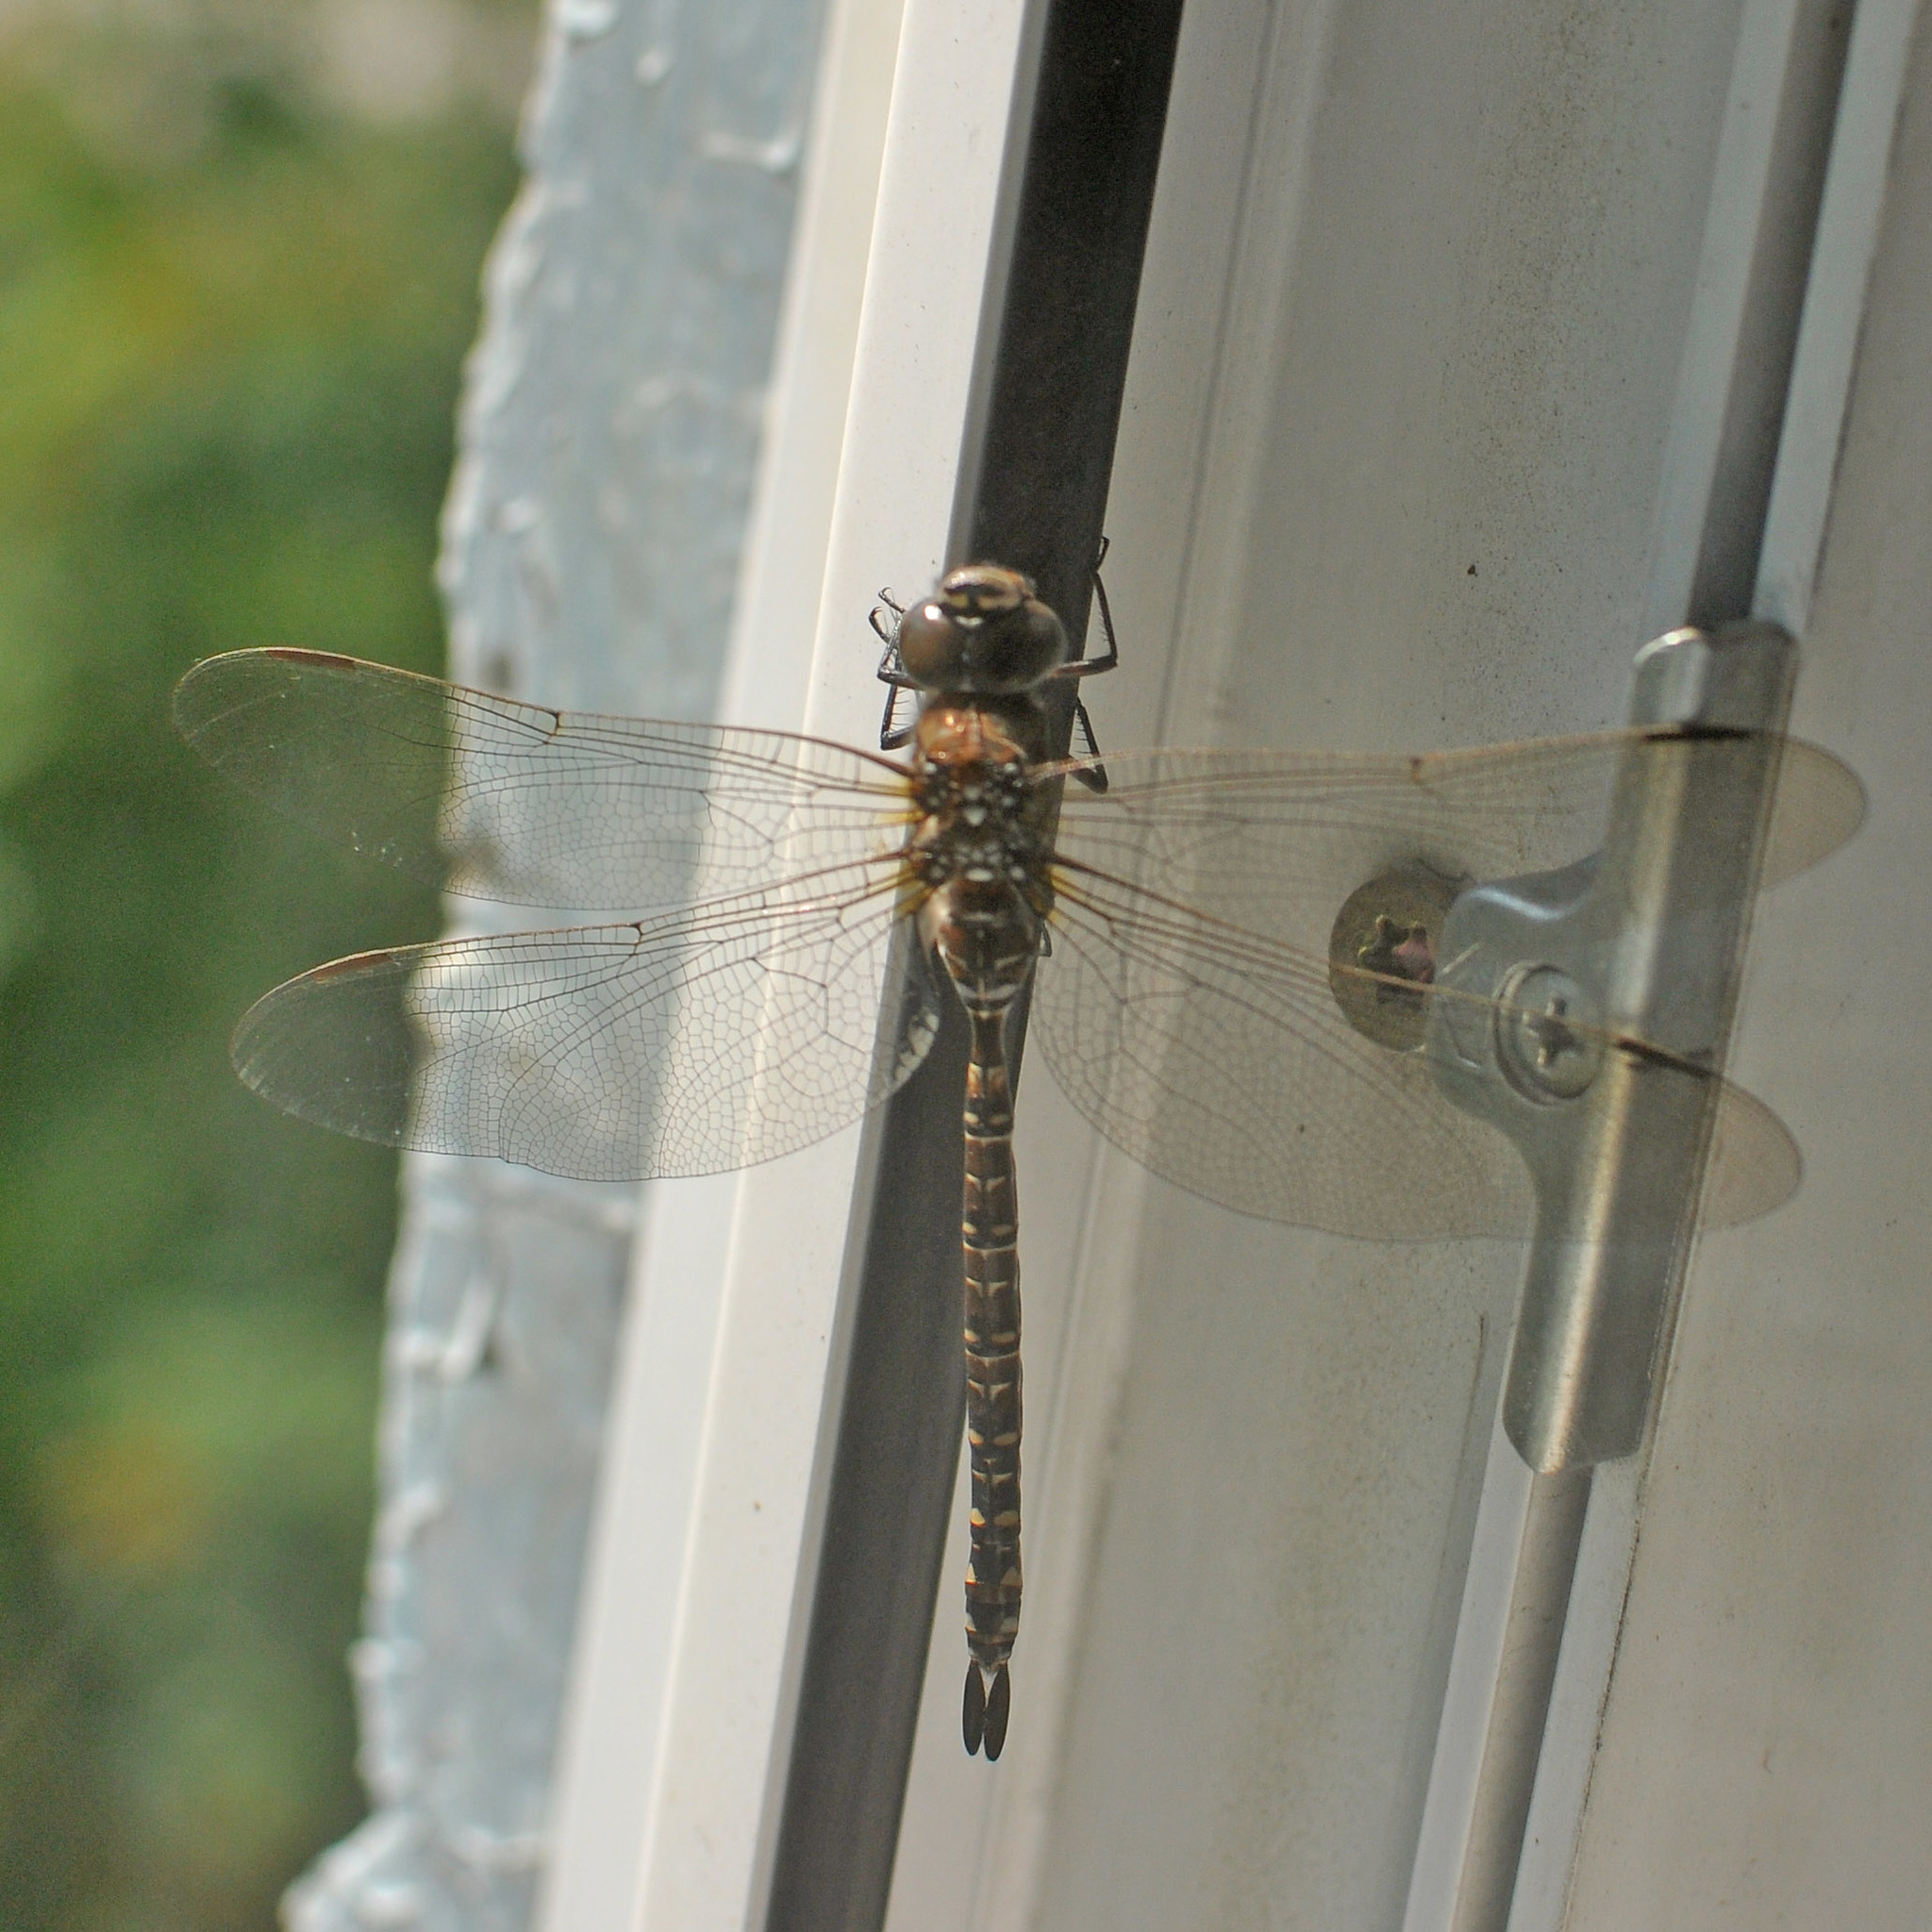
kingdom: Animalia
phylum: Arthropoda
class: Insecta
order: Odonata
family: Aeshnidae
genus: Aeshna
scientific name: Aeshna subarctica
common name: Subarctic darner
